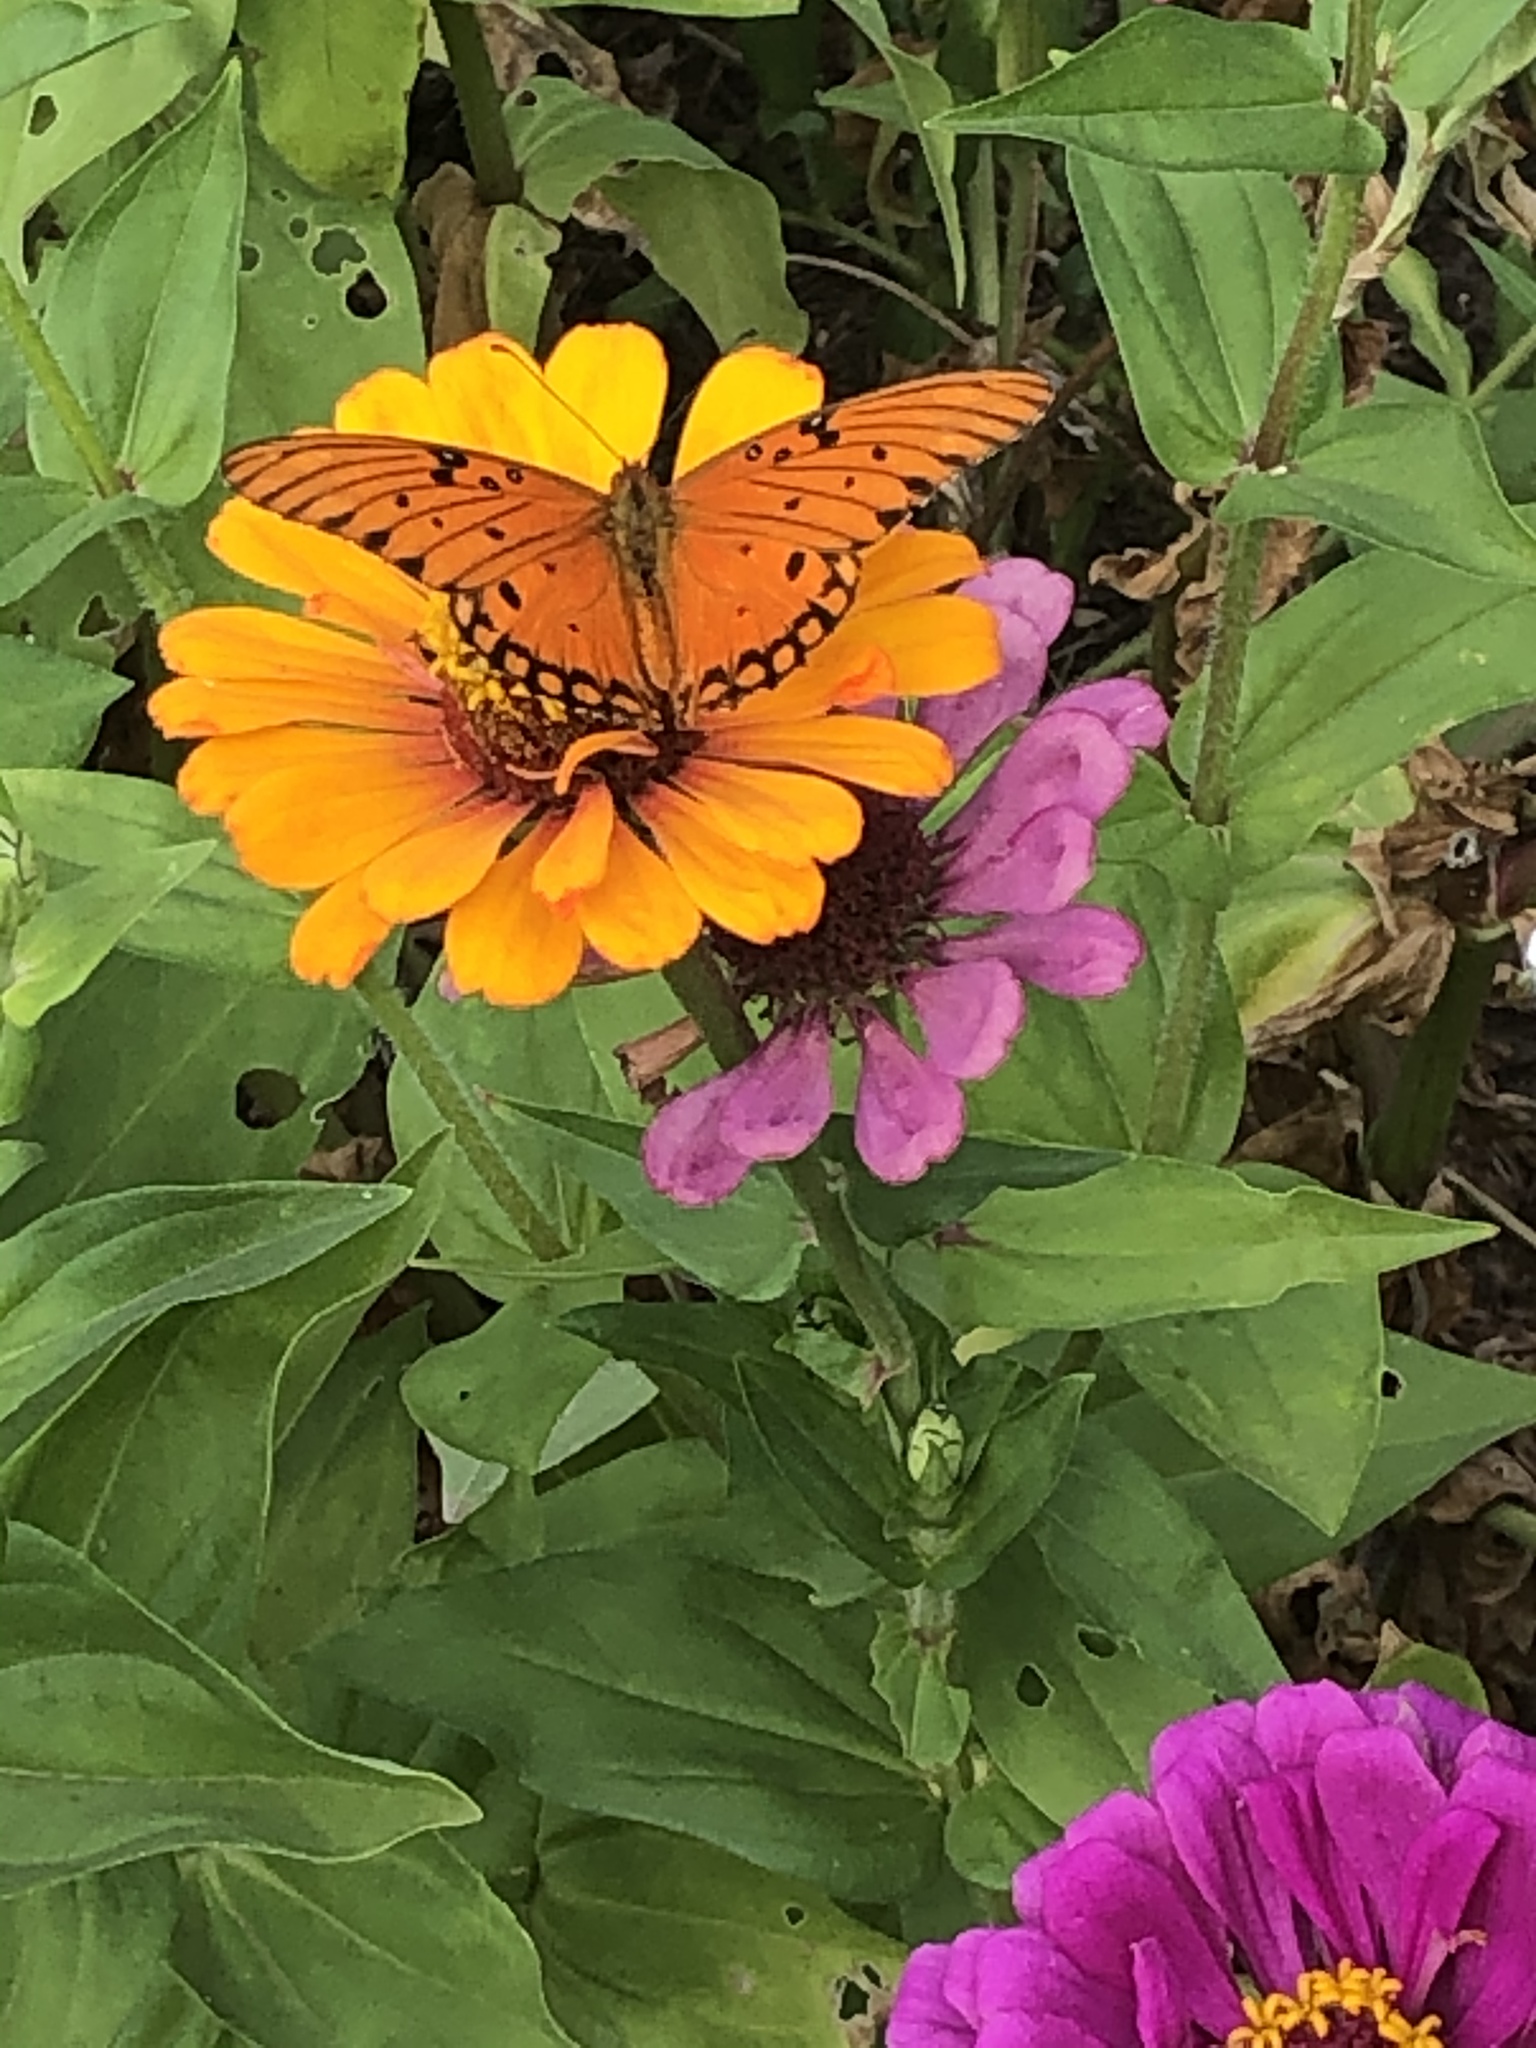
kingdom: Animalia
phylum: Arthropoda
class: Insecta
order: Lepidoptera
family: Nymphalidae
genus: Dione
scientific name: Dione vanillae
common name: Gulf fritillary
